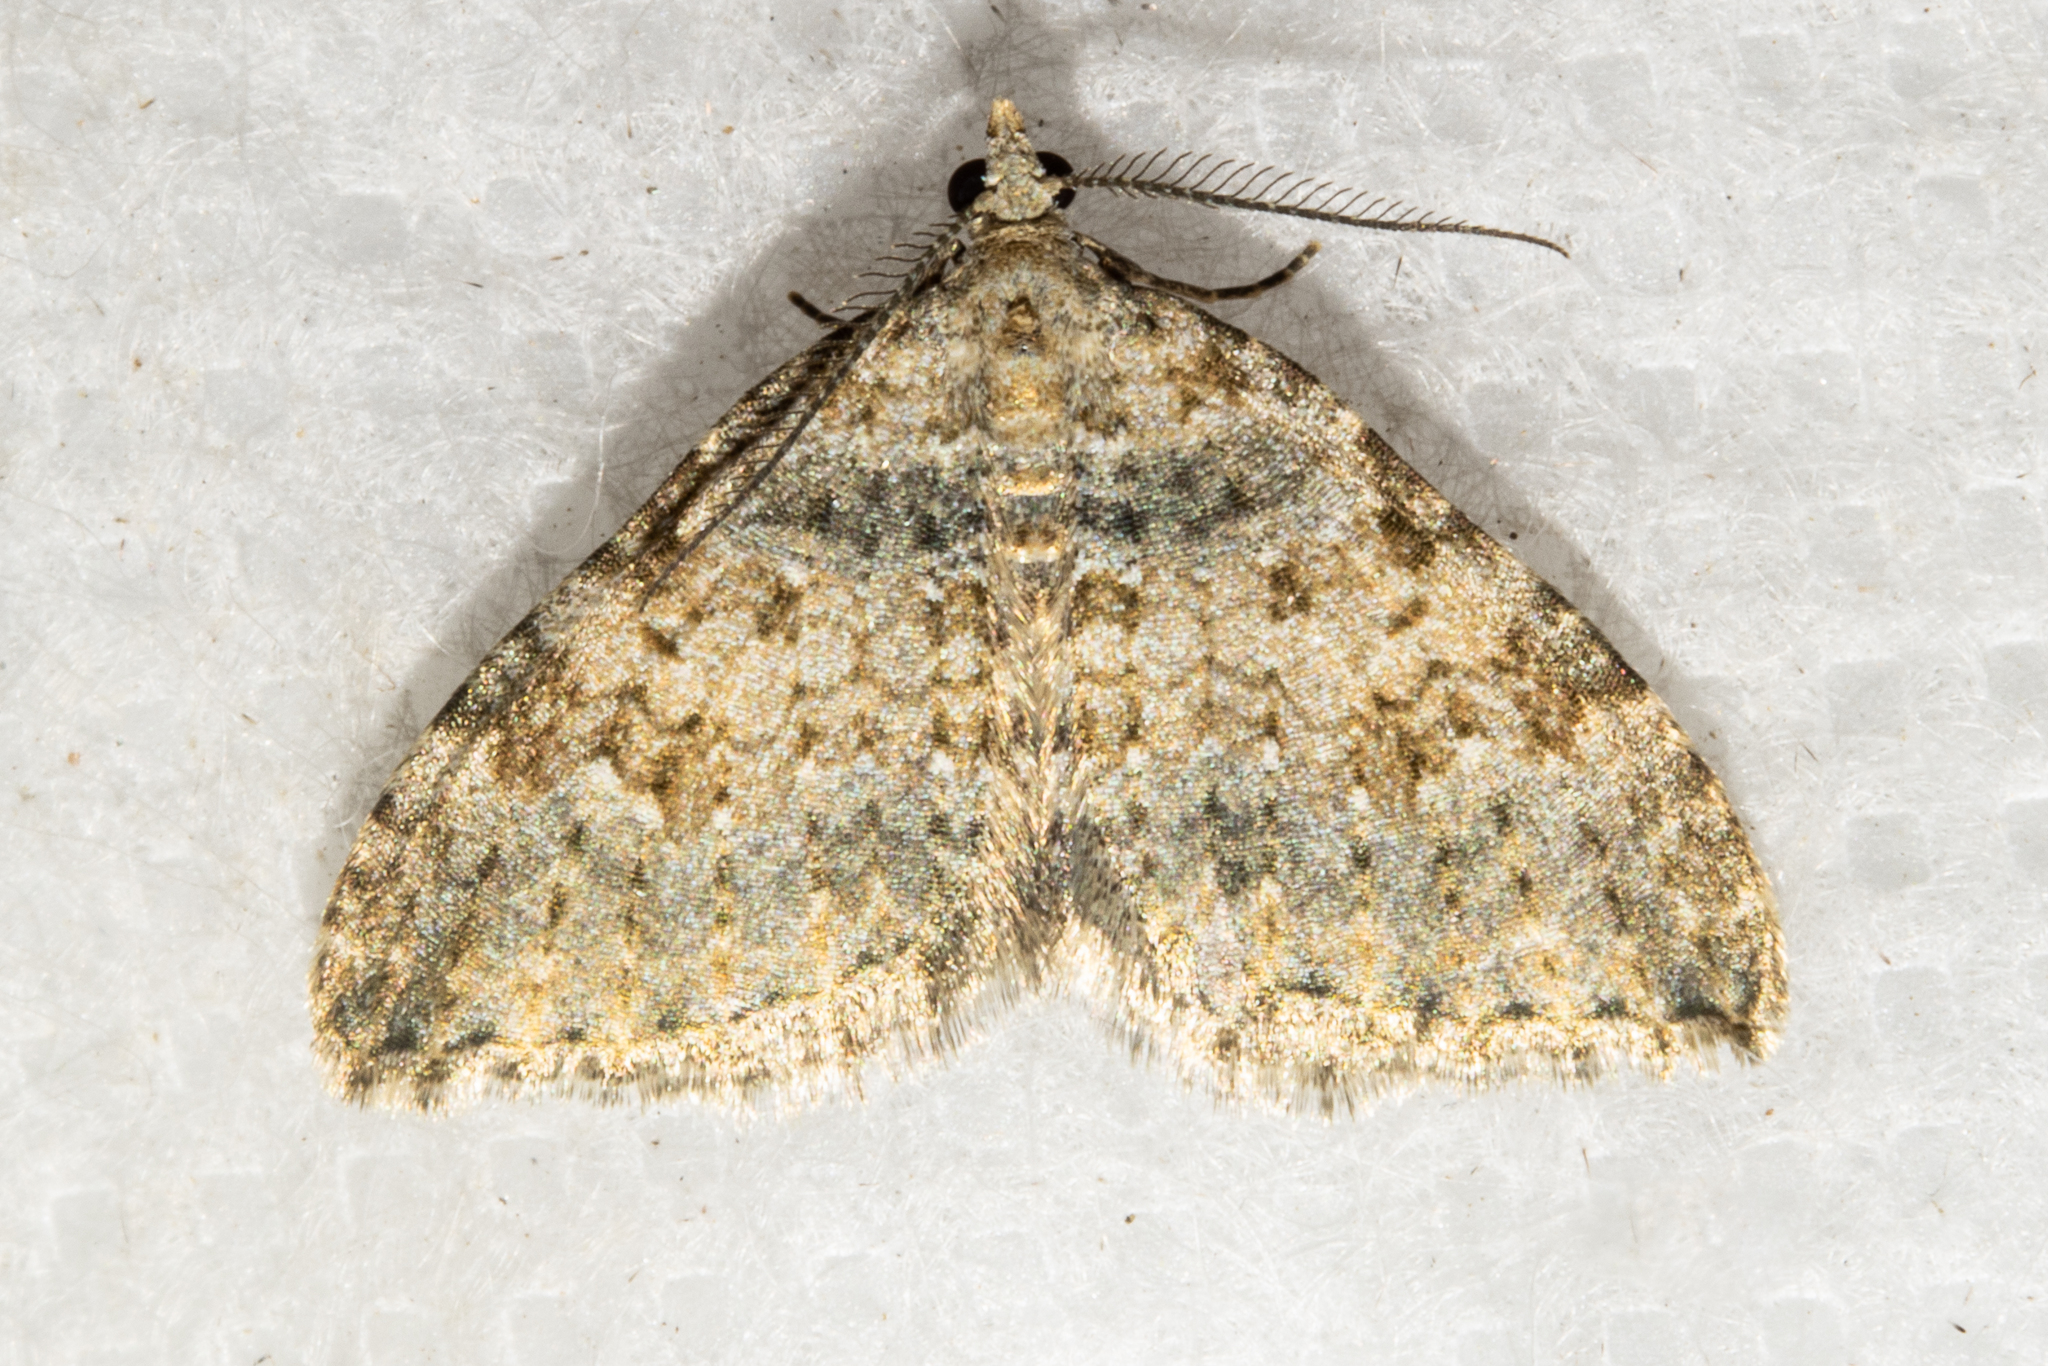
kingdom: Animalia
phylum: Arthropoda
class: Insecta
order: Lepidoptera
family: Geometridae
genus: Helastia
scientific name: Helastia plumbea
